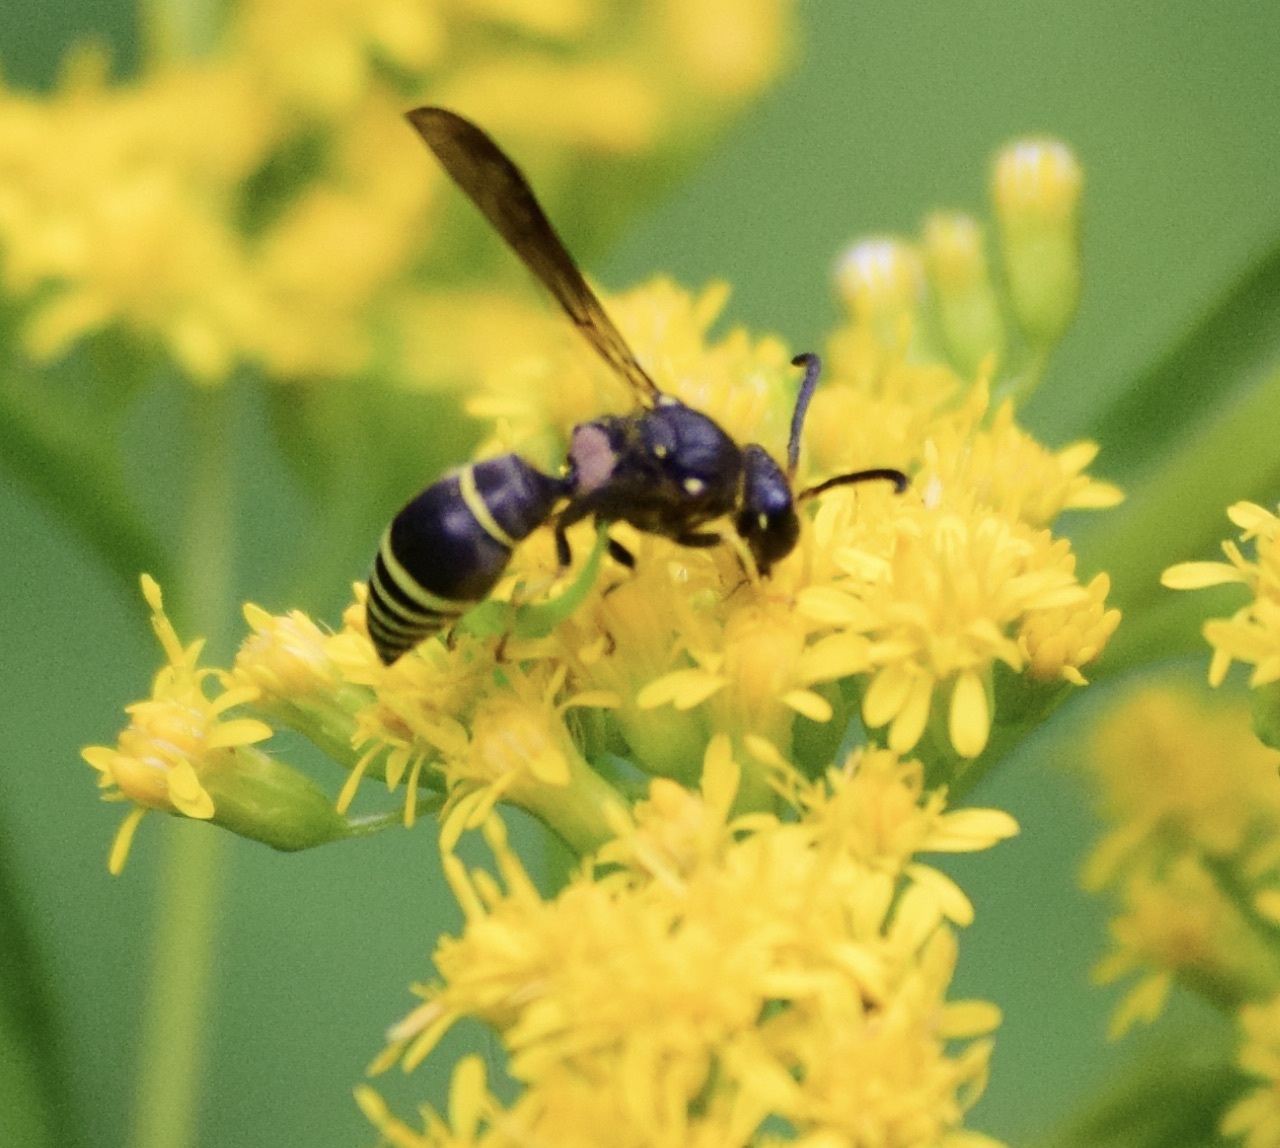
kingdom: Animalia
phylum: Arthropoda
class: Insecta
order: Hymenoptera
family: Vespidae
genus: Ancistrocerus
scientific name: Ancistrocerus
